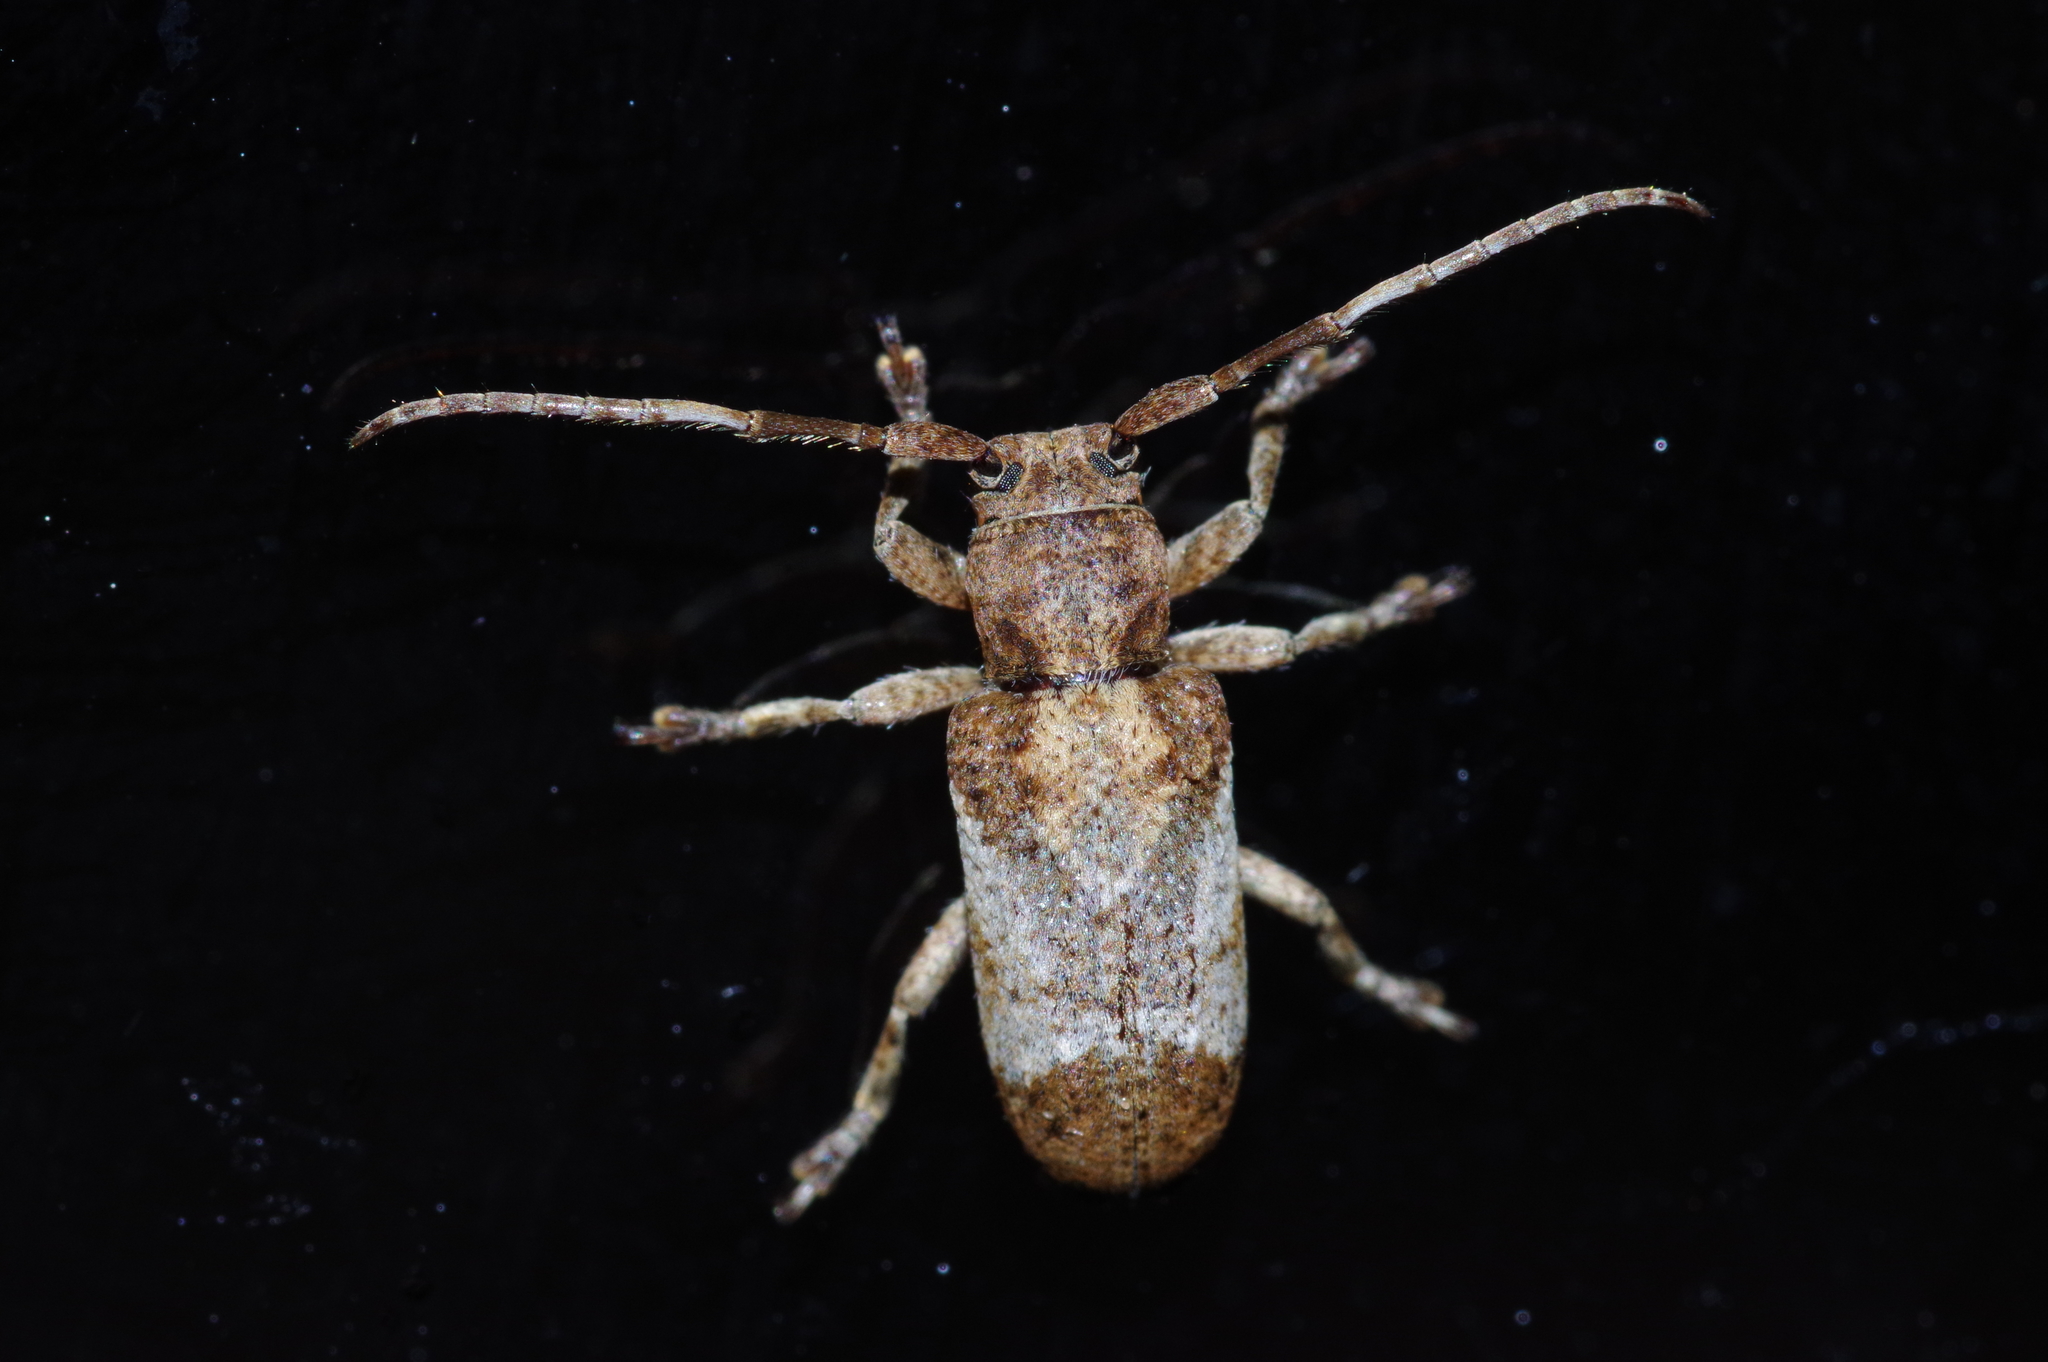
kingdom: Animalia
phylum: Arthropoda
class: Insecta
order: Coleoptera
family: Cerambycidae
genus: Pterolophia
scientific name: Pterolophia annulata
